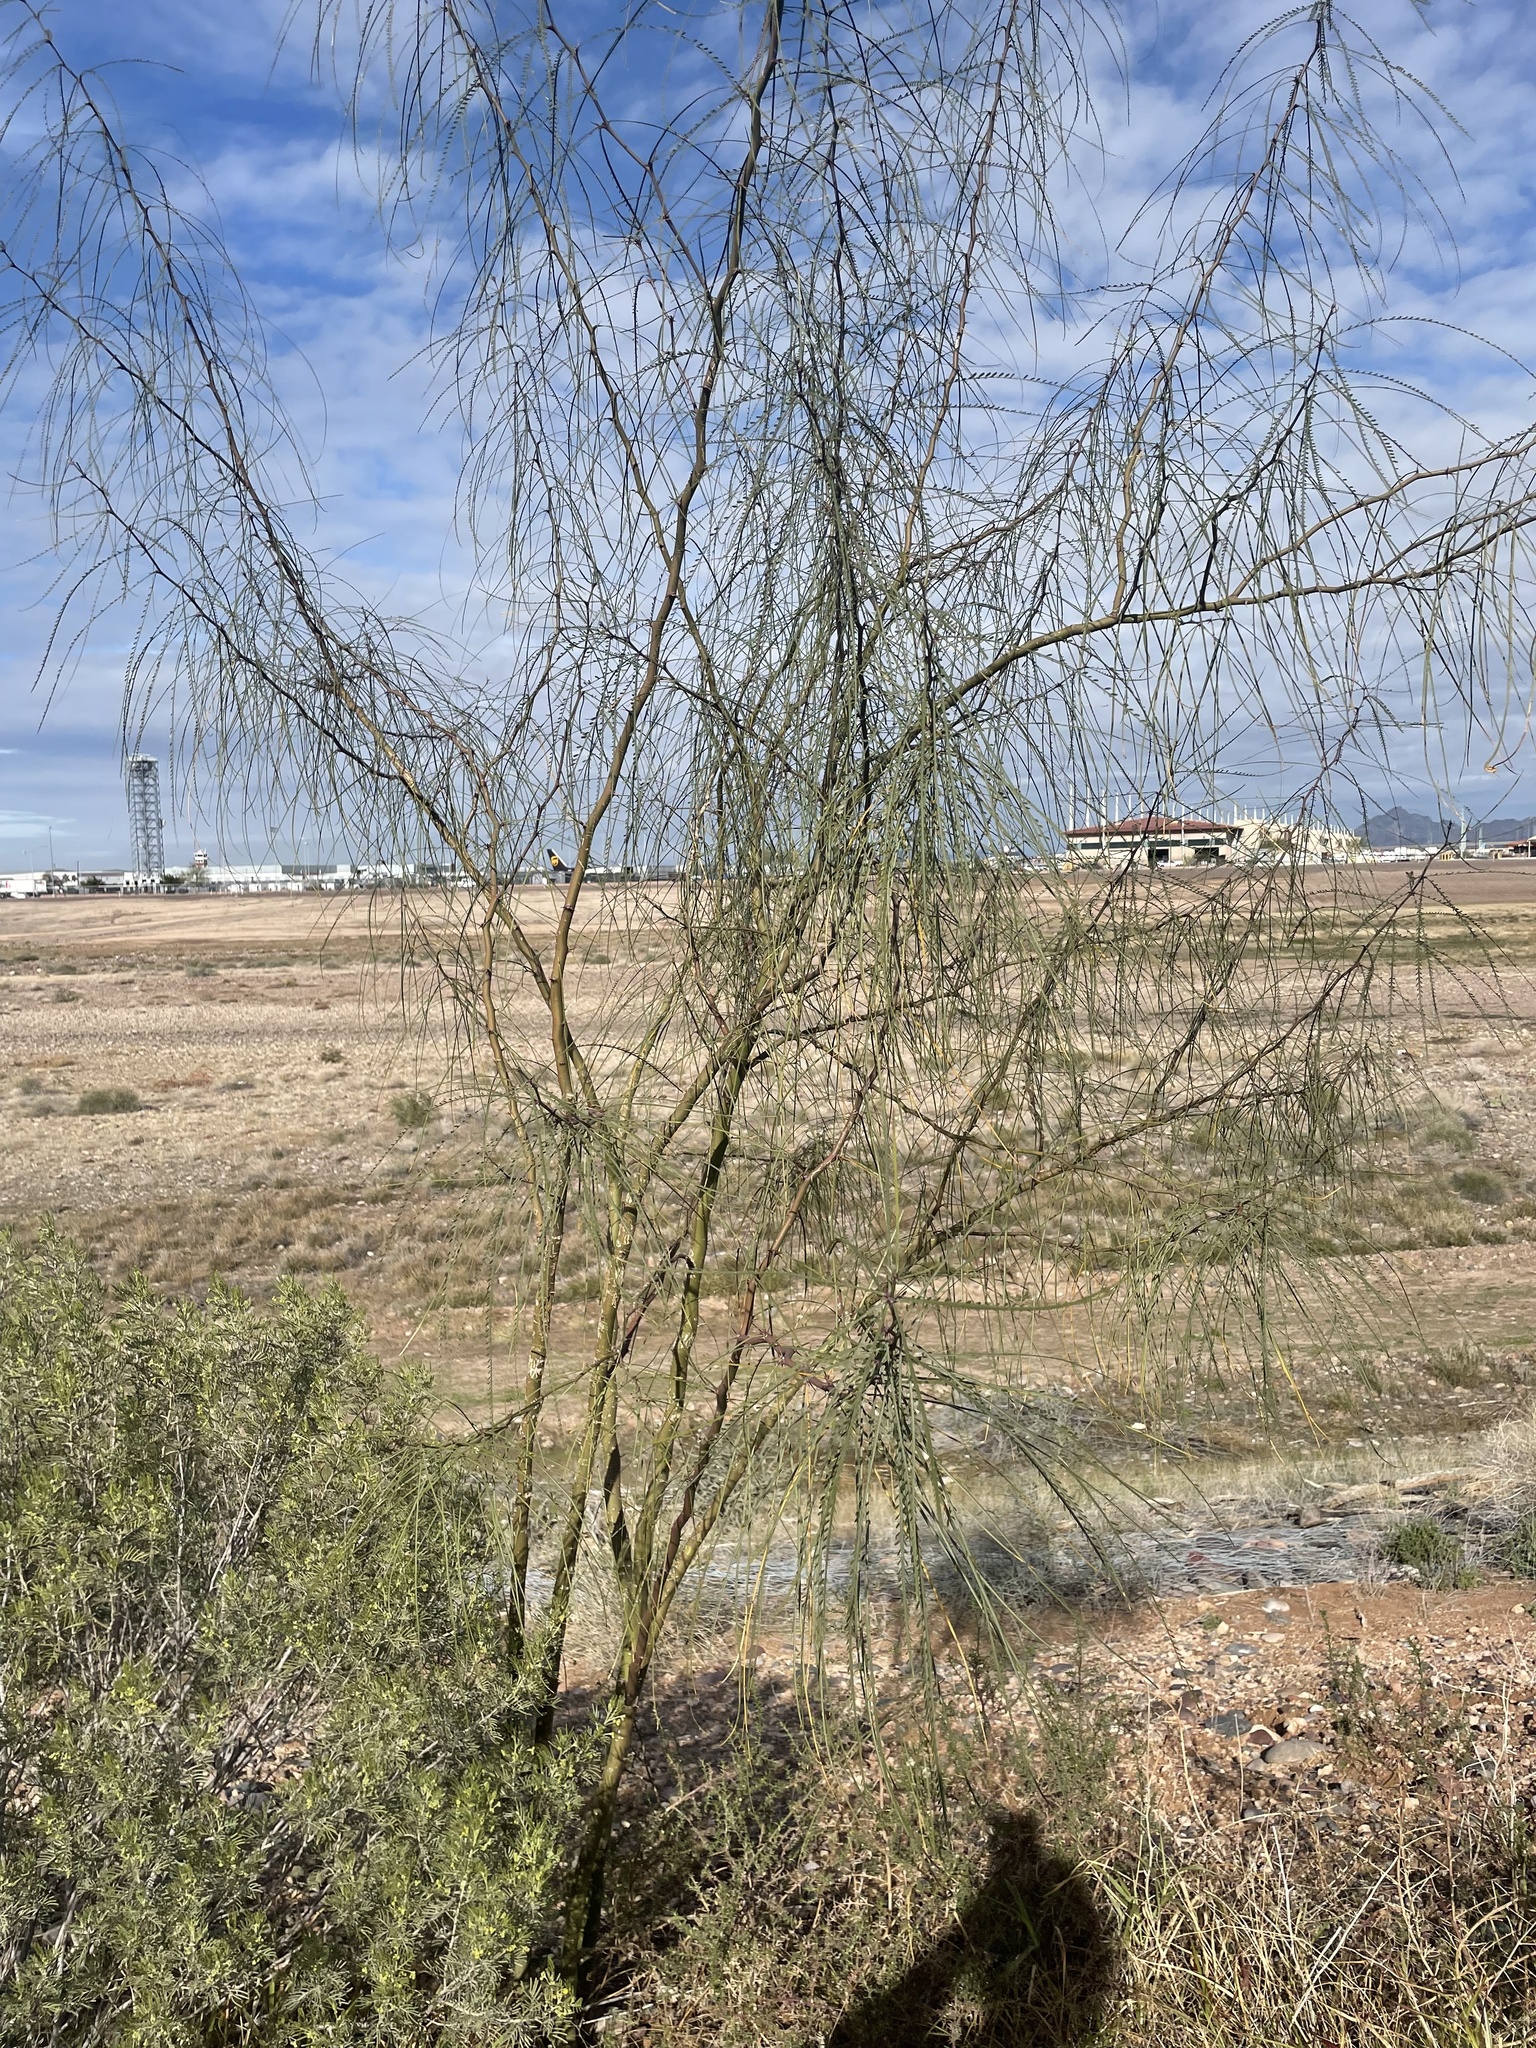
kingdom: Plantae
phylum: Tracheophyta
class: Magnoliopsida
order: Fabales
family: Fabaceae
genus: Parkinsonia
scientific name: Parkinsonia aculeata
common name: Jerusalem thorn
